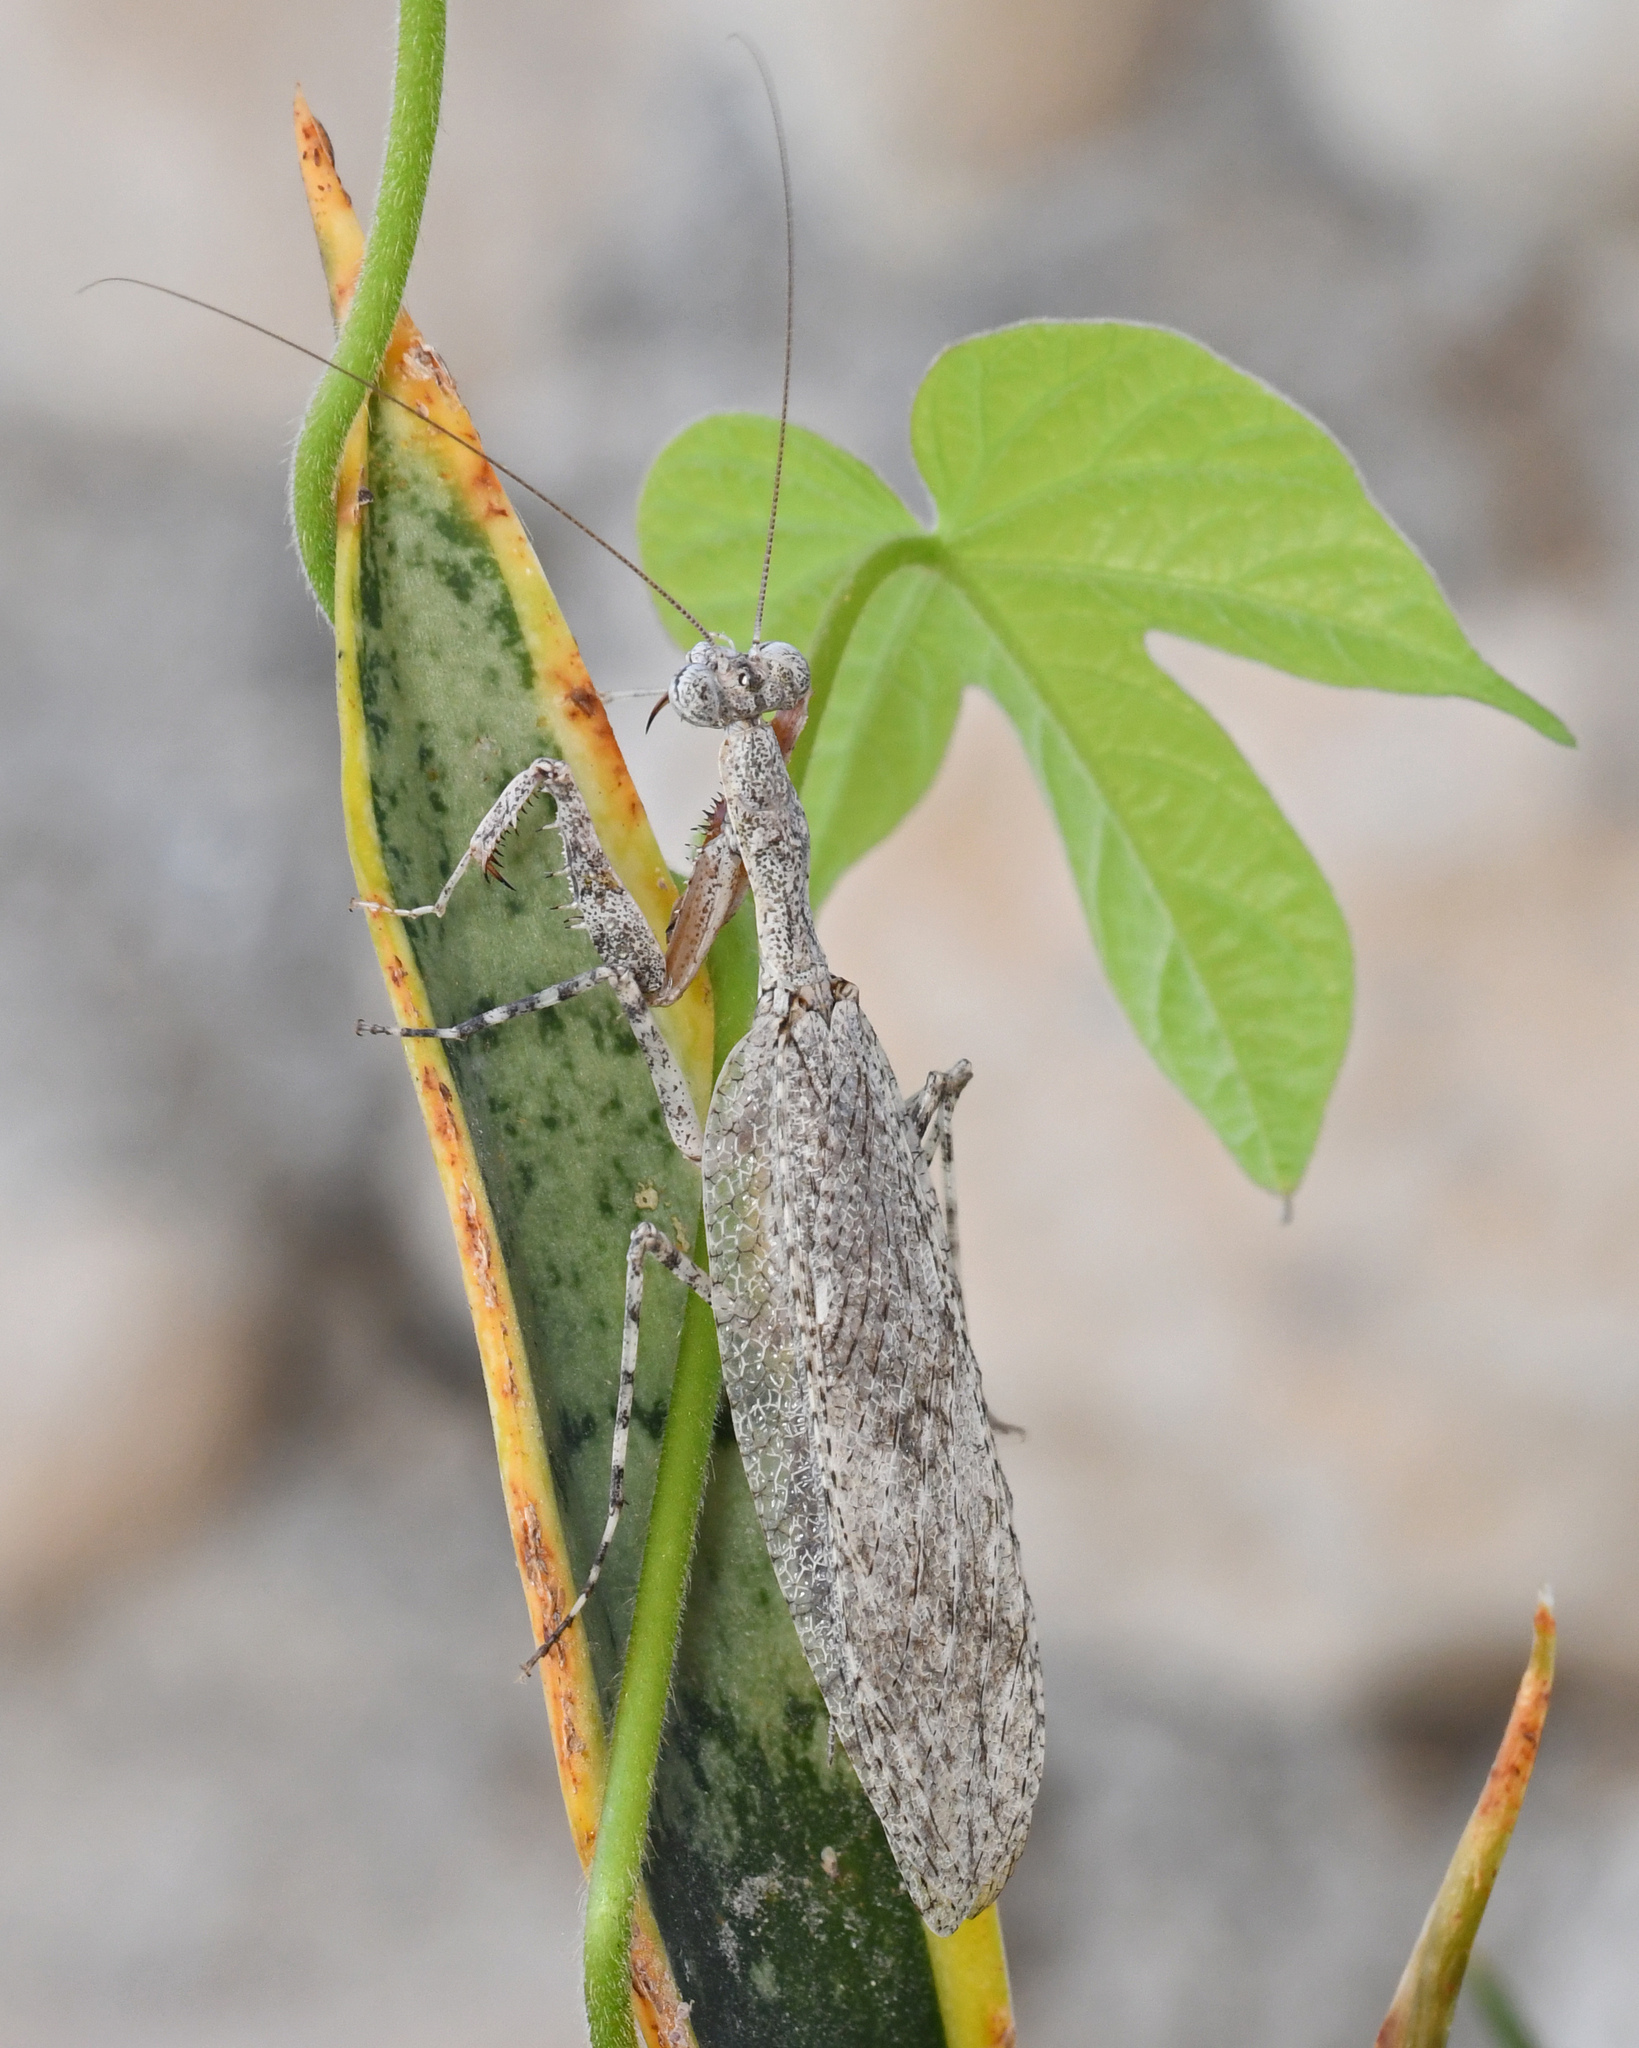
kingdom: Animalia
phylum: Arthropoda
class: Insecta
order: Mantodea
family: Epaphroditidae
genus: Gonatista
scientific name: Gonatista major
